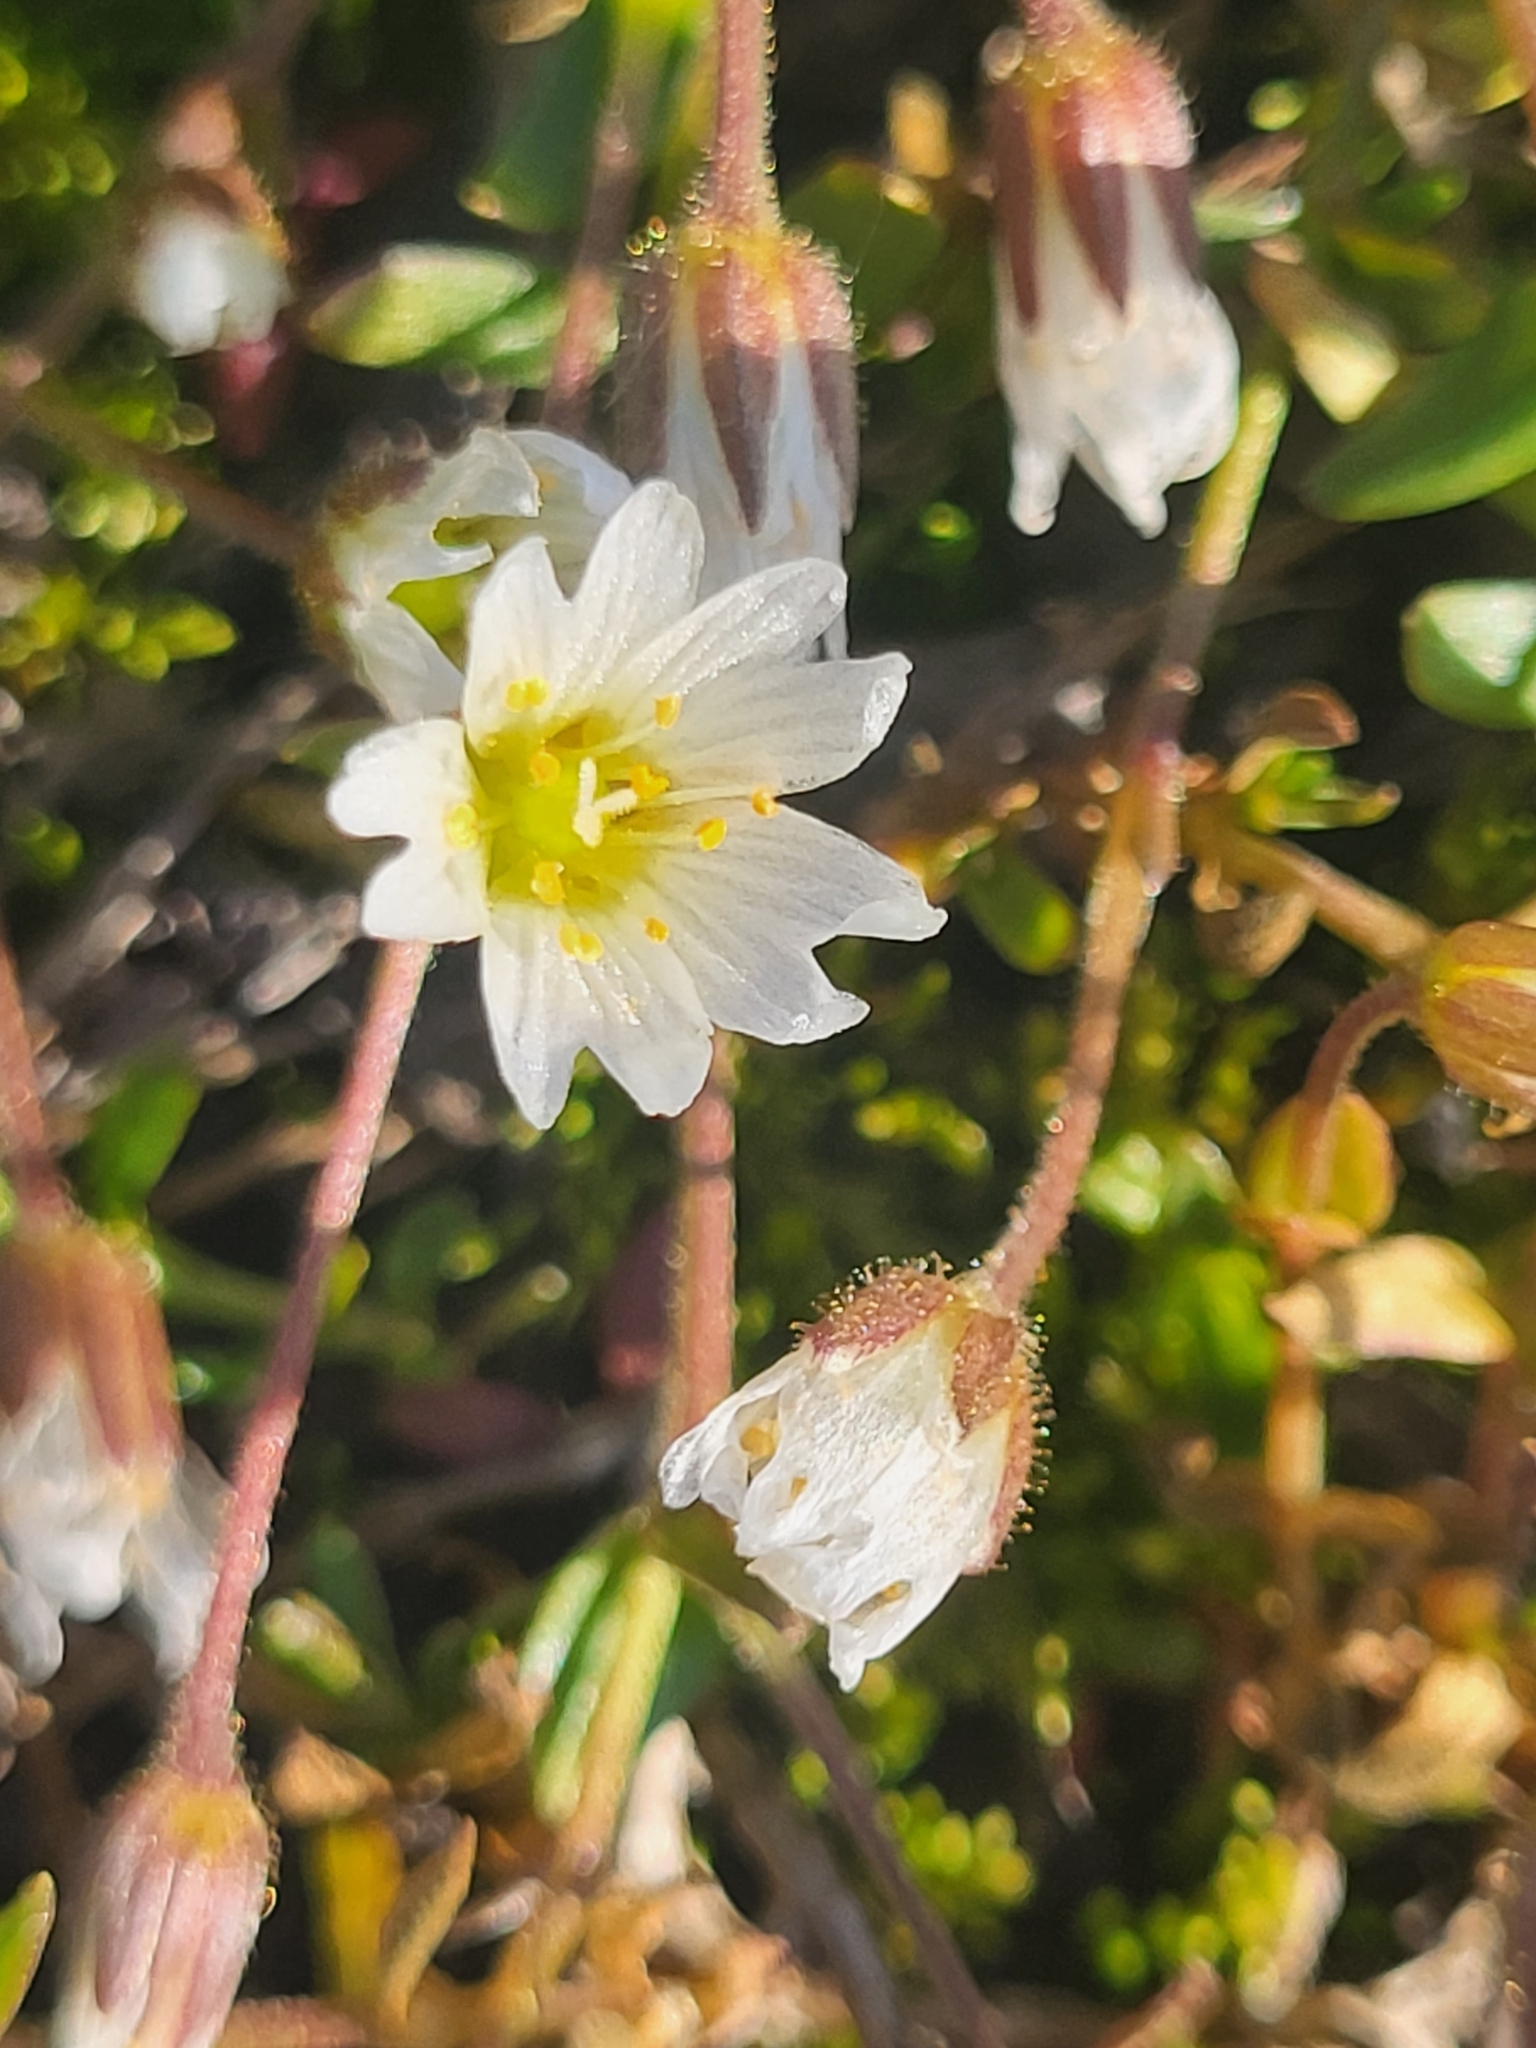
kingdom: Plantae
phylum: Tracheophyta
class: Magnoliopsida
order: Caryophyllales
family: Caryophyllaceae
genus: Dichodon
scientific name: Dichodon cerastoides
